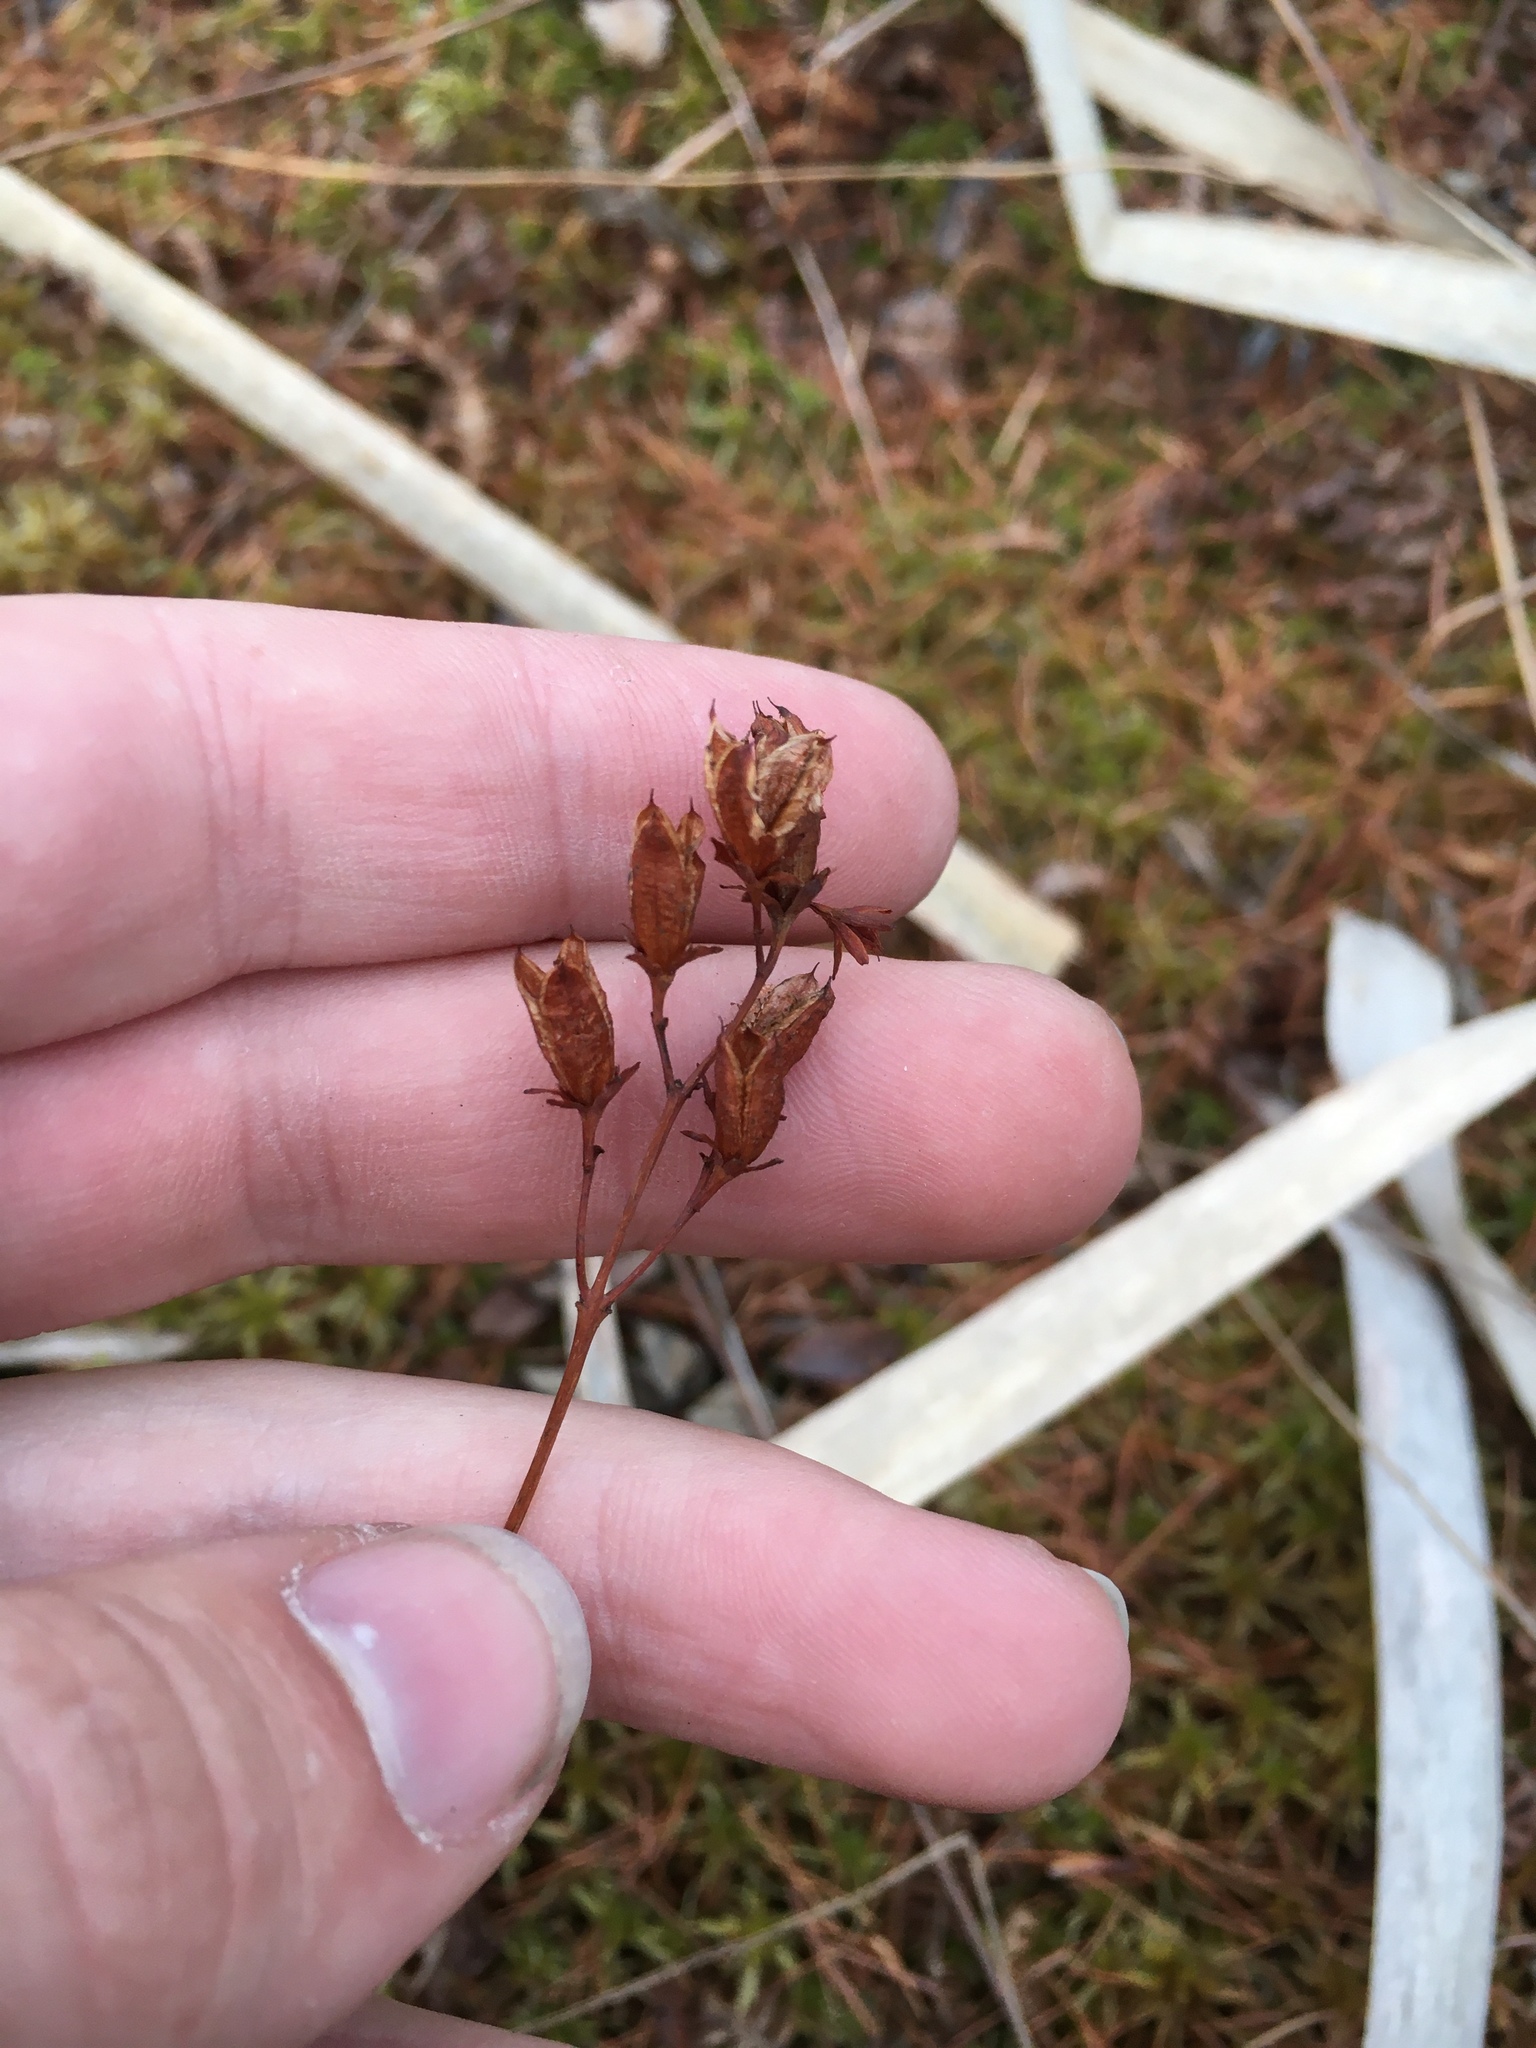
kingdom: Plantae
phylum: Tracheophyta
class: Magnoliopsida
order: Malpighiales
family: Hypericaceae
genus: Triadenum
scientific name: Triadenum fraseri
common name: Fraser's marsh st. johnswort
